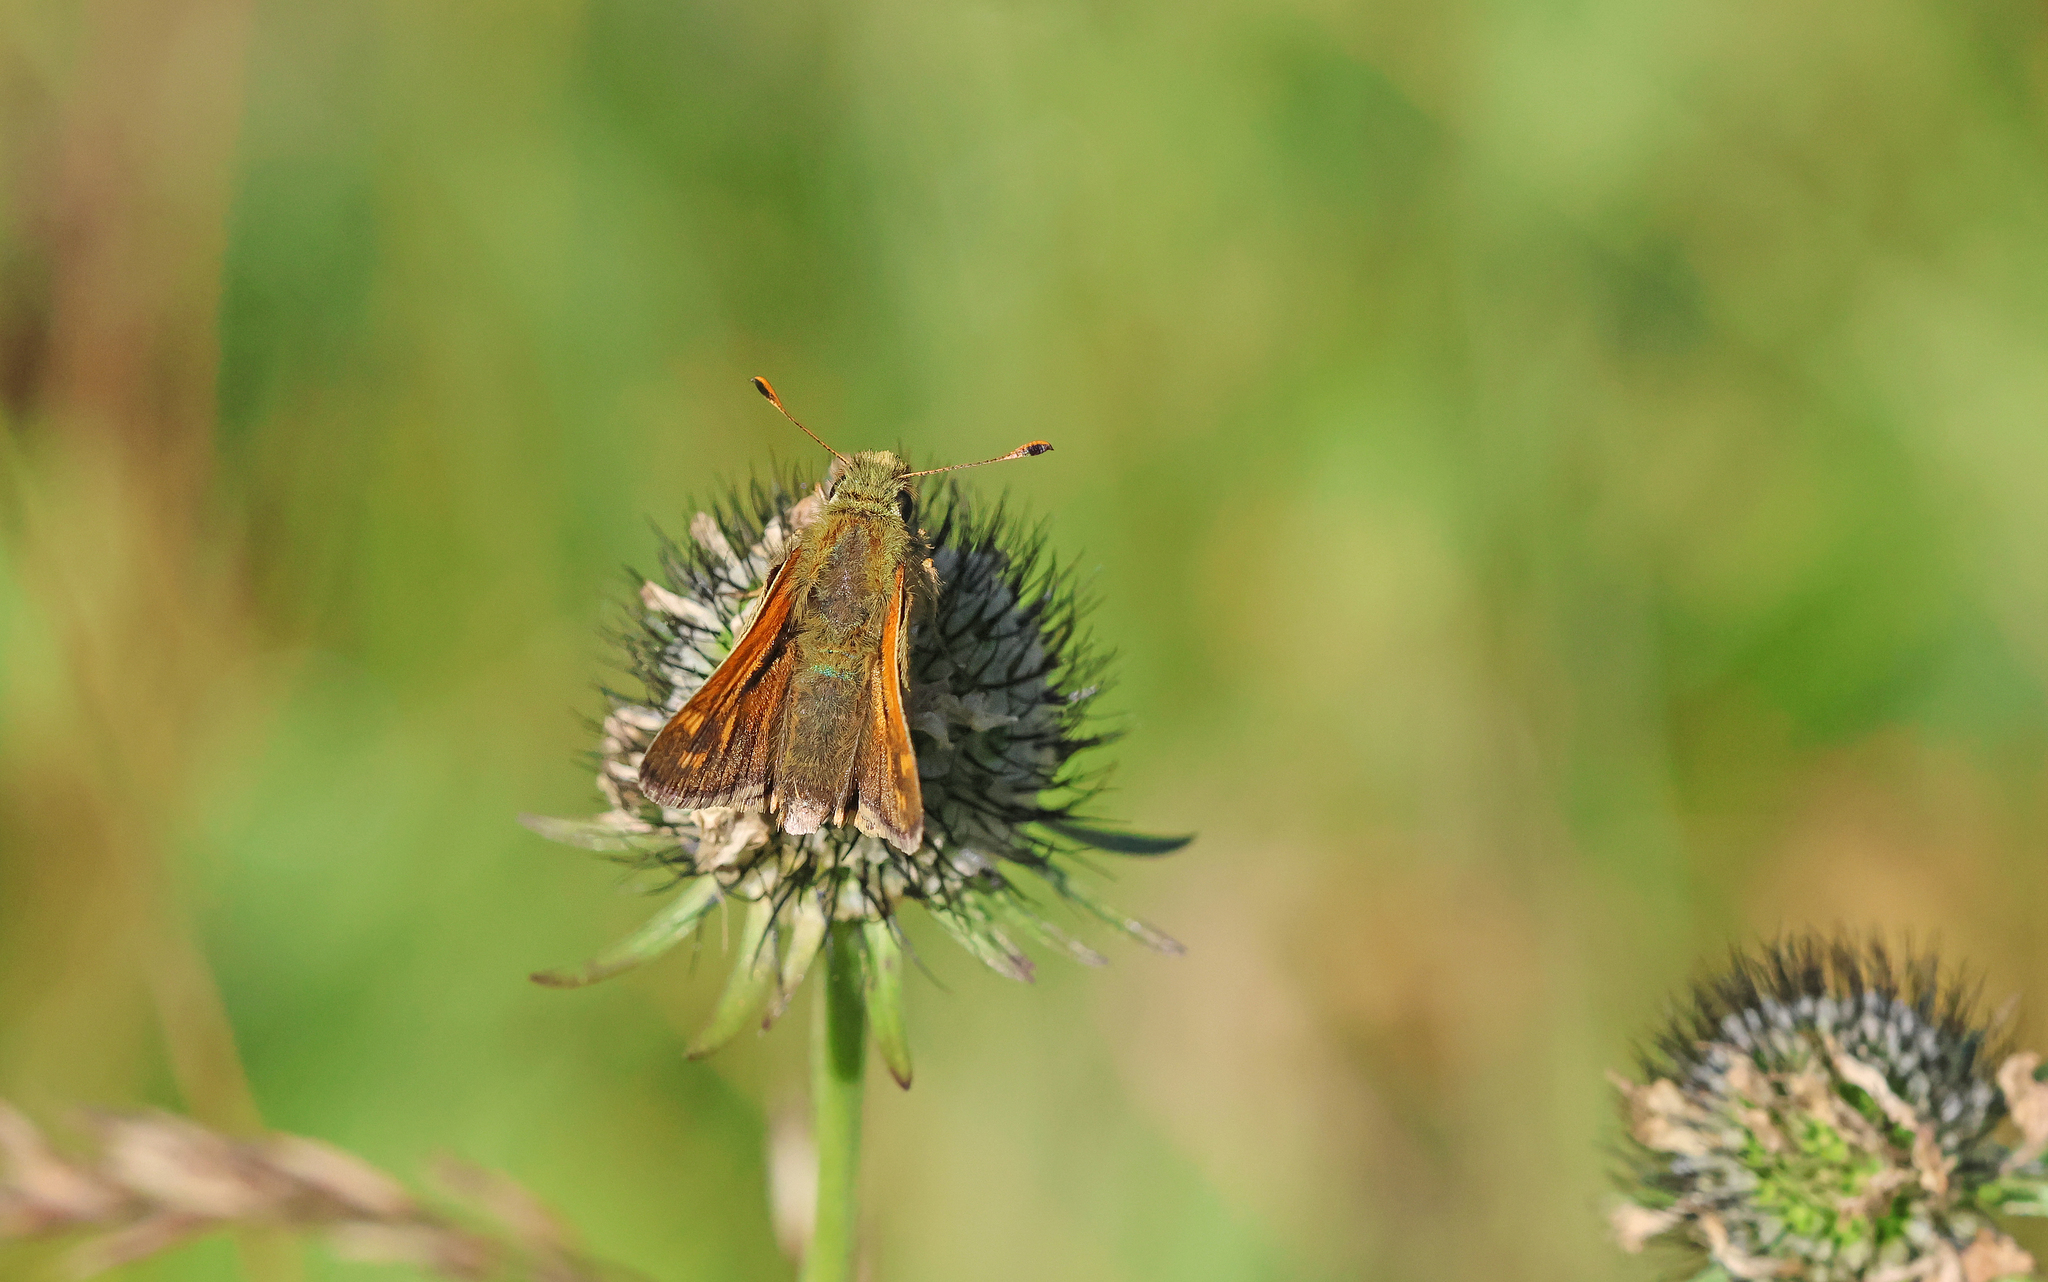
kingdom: Animalia
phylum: Arthropoda
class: Insecta
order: Lepidoptera
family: Hesperiidae
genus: Hesperia
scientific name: Hesperia comma
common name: Common branded skipper
